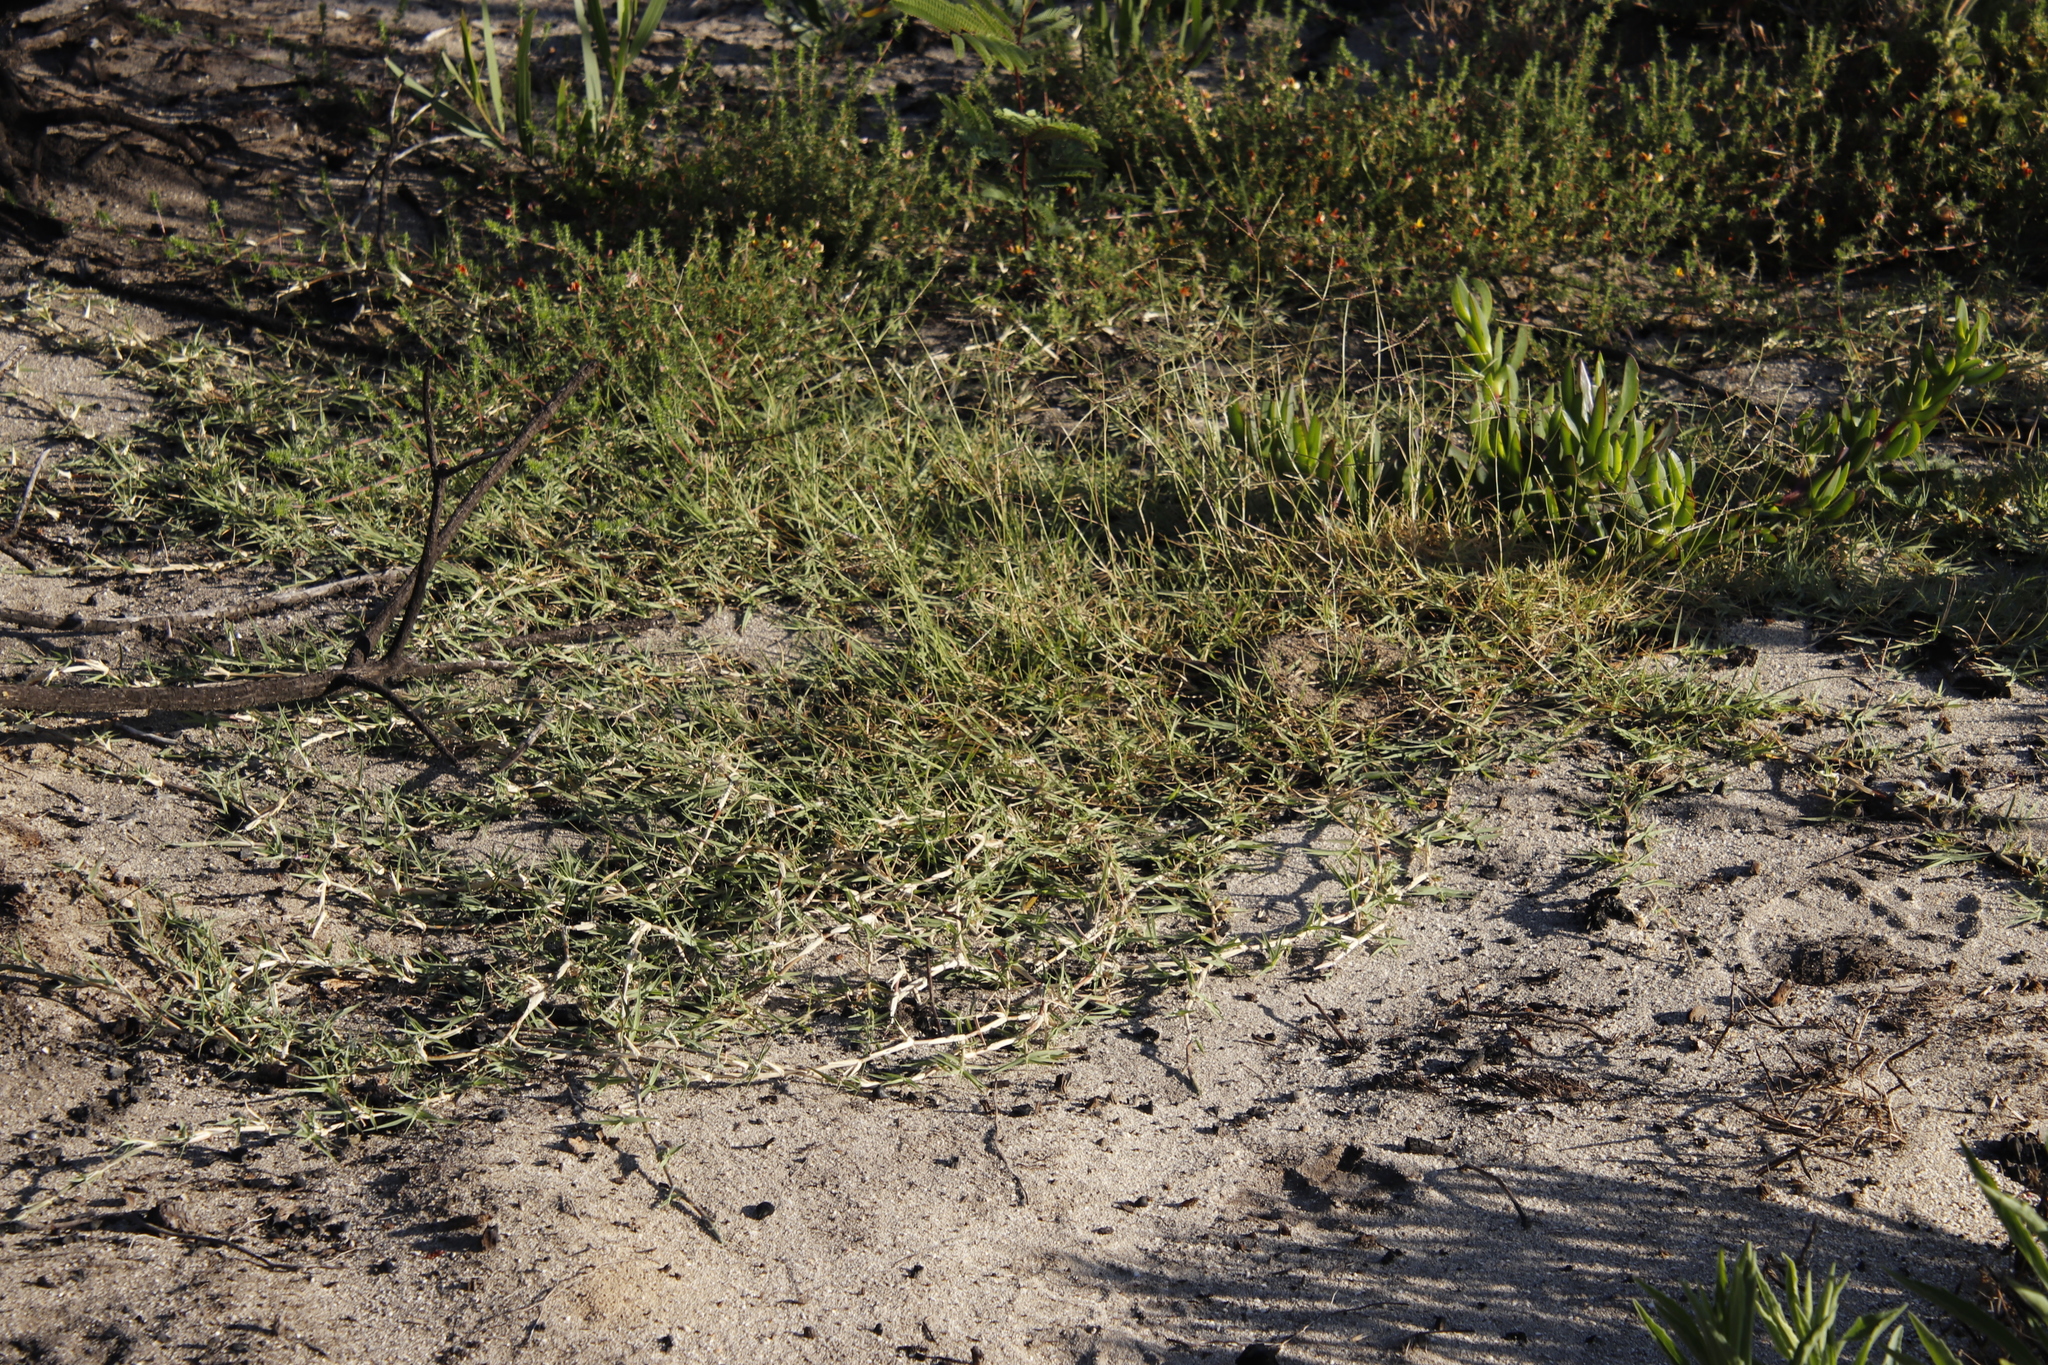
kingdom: Plantae
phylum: Tracheophyta
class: Liliopsida
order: Poales
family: Poaceae
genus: Cynodon
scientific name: Cynodon dactylon
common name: Bermuda grass
